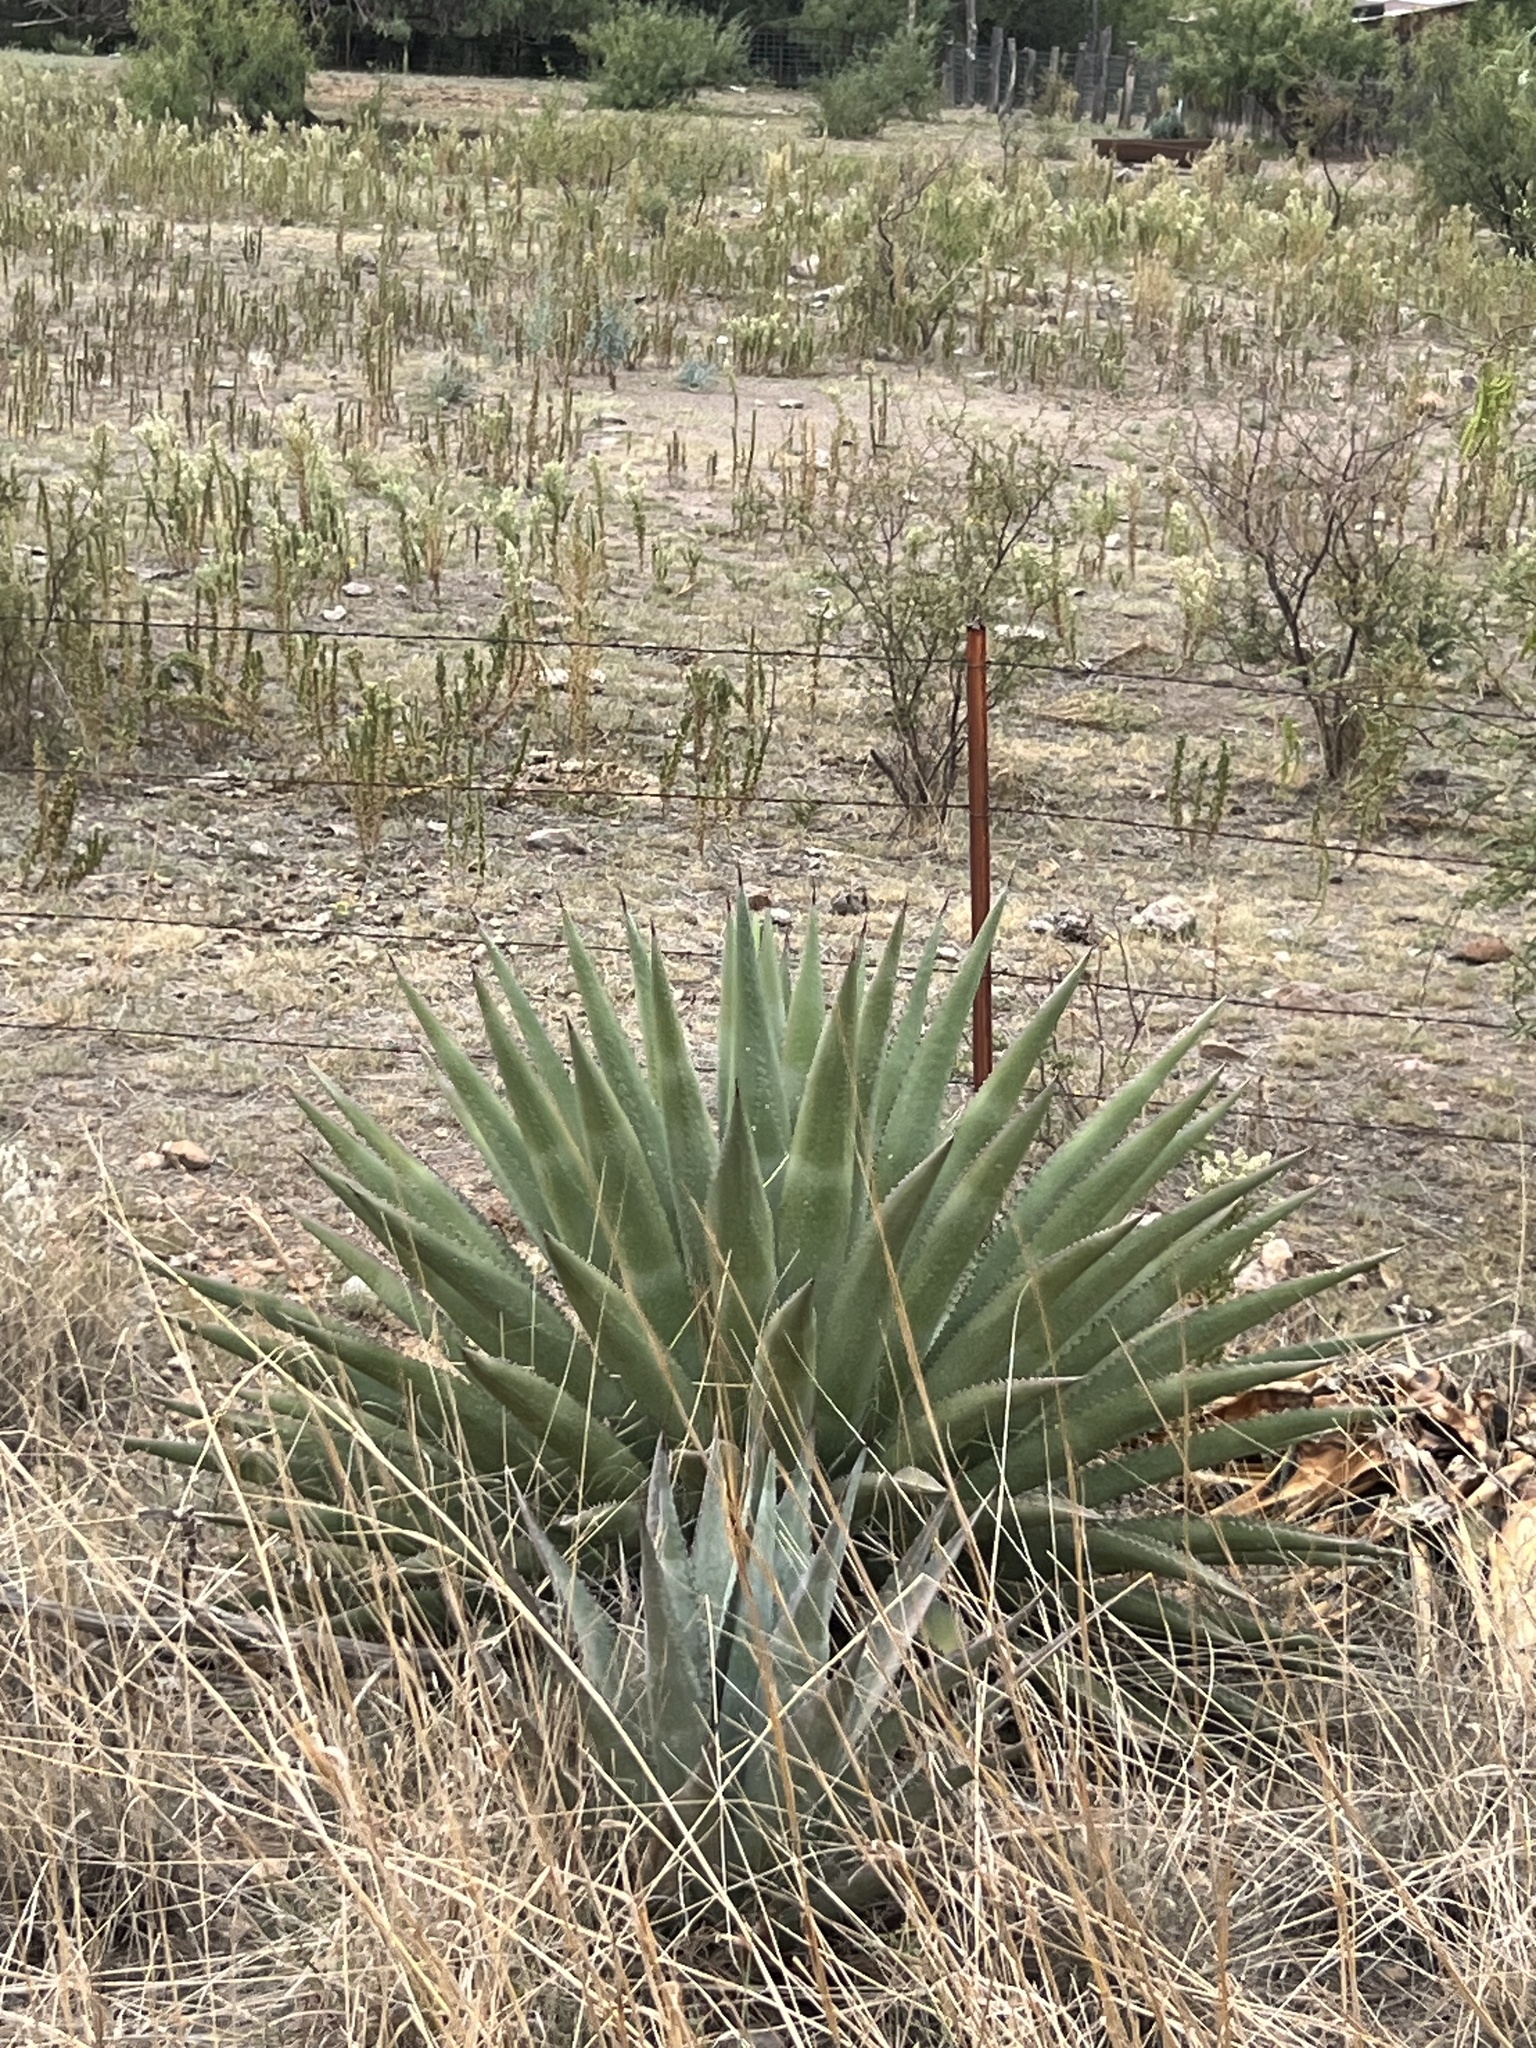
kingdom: Plantae
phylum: Tracheophyta
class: Liliopsida
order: Asparagales
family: Asparagaceae
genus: Agave
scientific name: Agave palmeri
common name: Palmer agave
